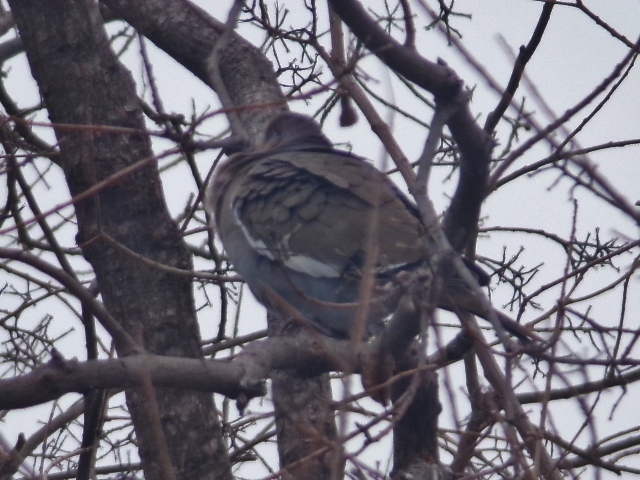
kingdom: Animalia
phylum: Chordata
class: Aves
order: Columbiformes
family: Columbidae
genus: Zenaida
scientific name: Zenaida asiatica
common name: White-winged dove
